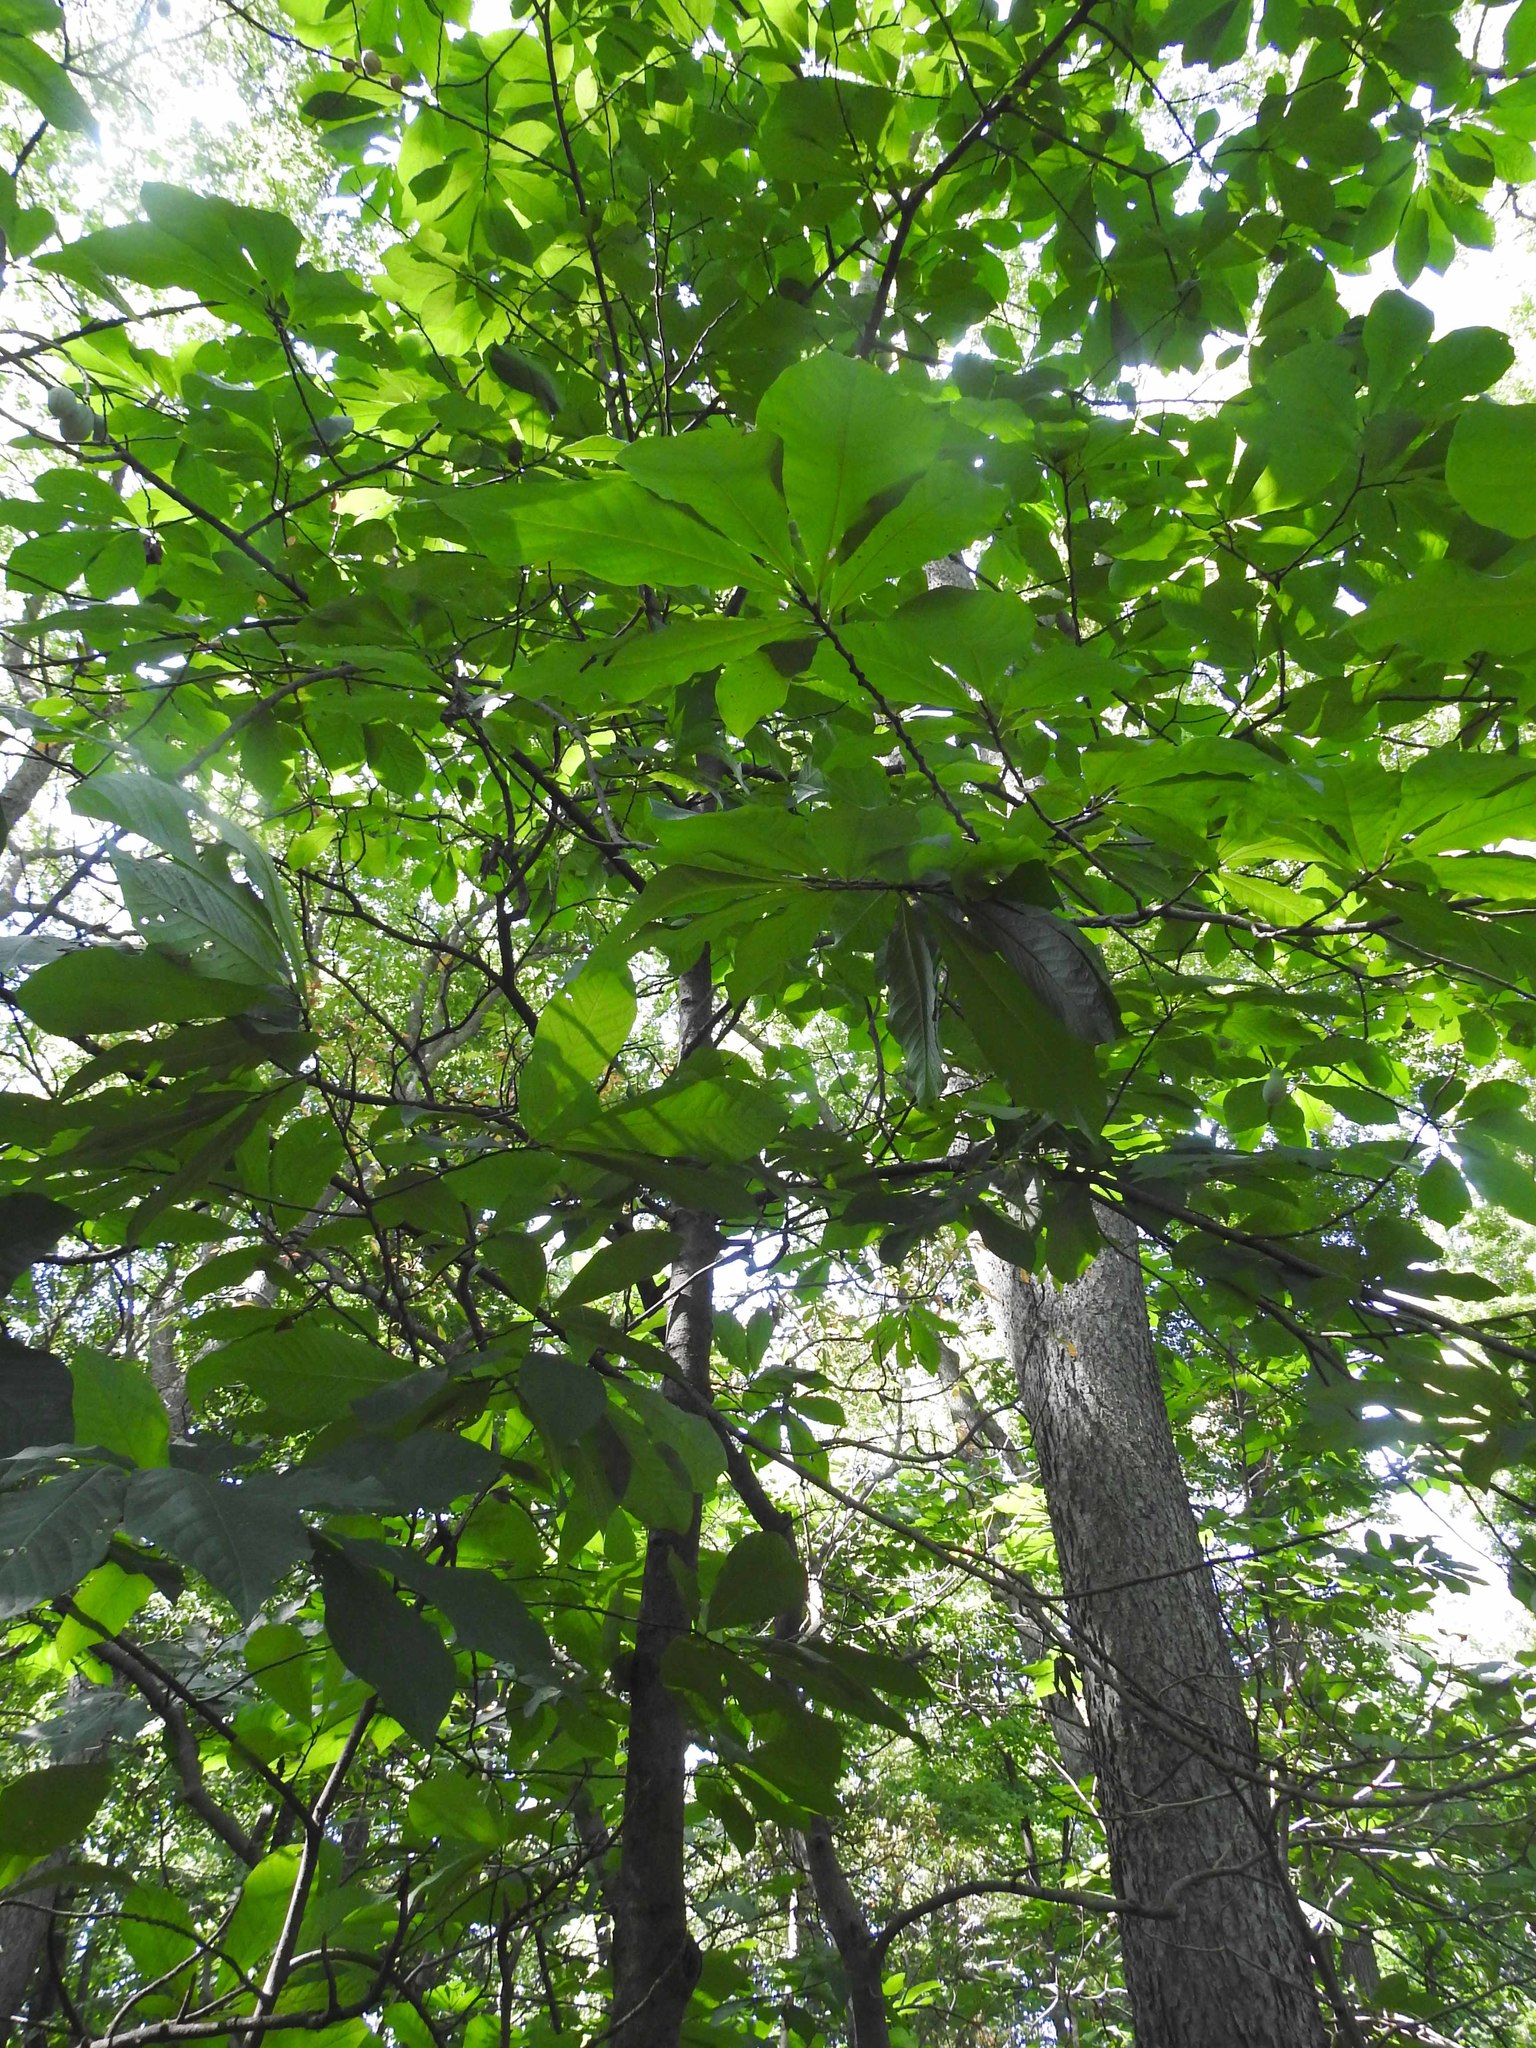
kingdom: Plantae
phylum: Tracheophyta
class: Magnoliopsida
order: Magnoliales
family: Annonaceae
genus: Asimina
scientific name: Asimina triloba
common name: Dog-banana
